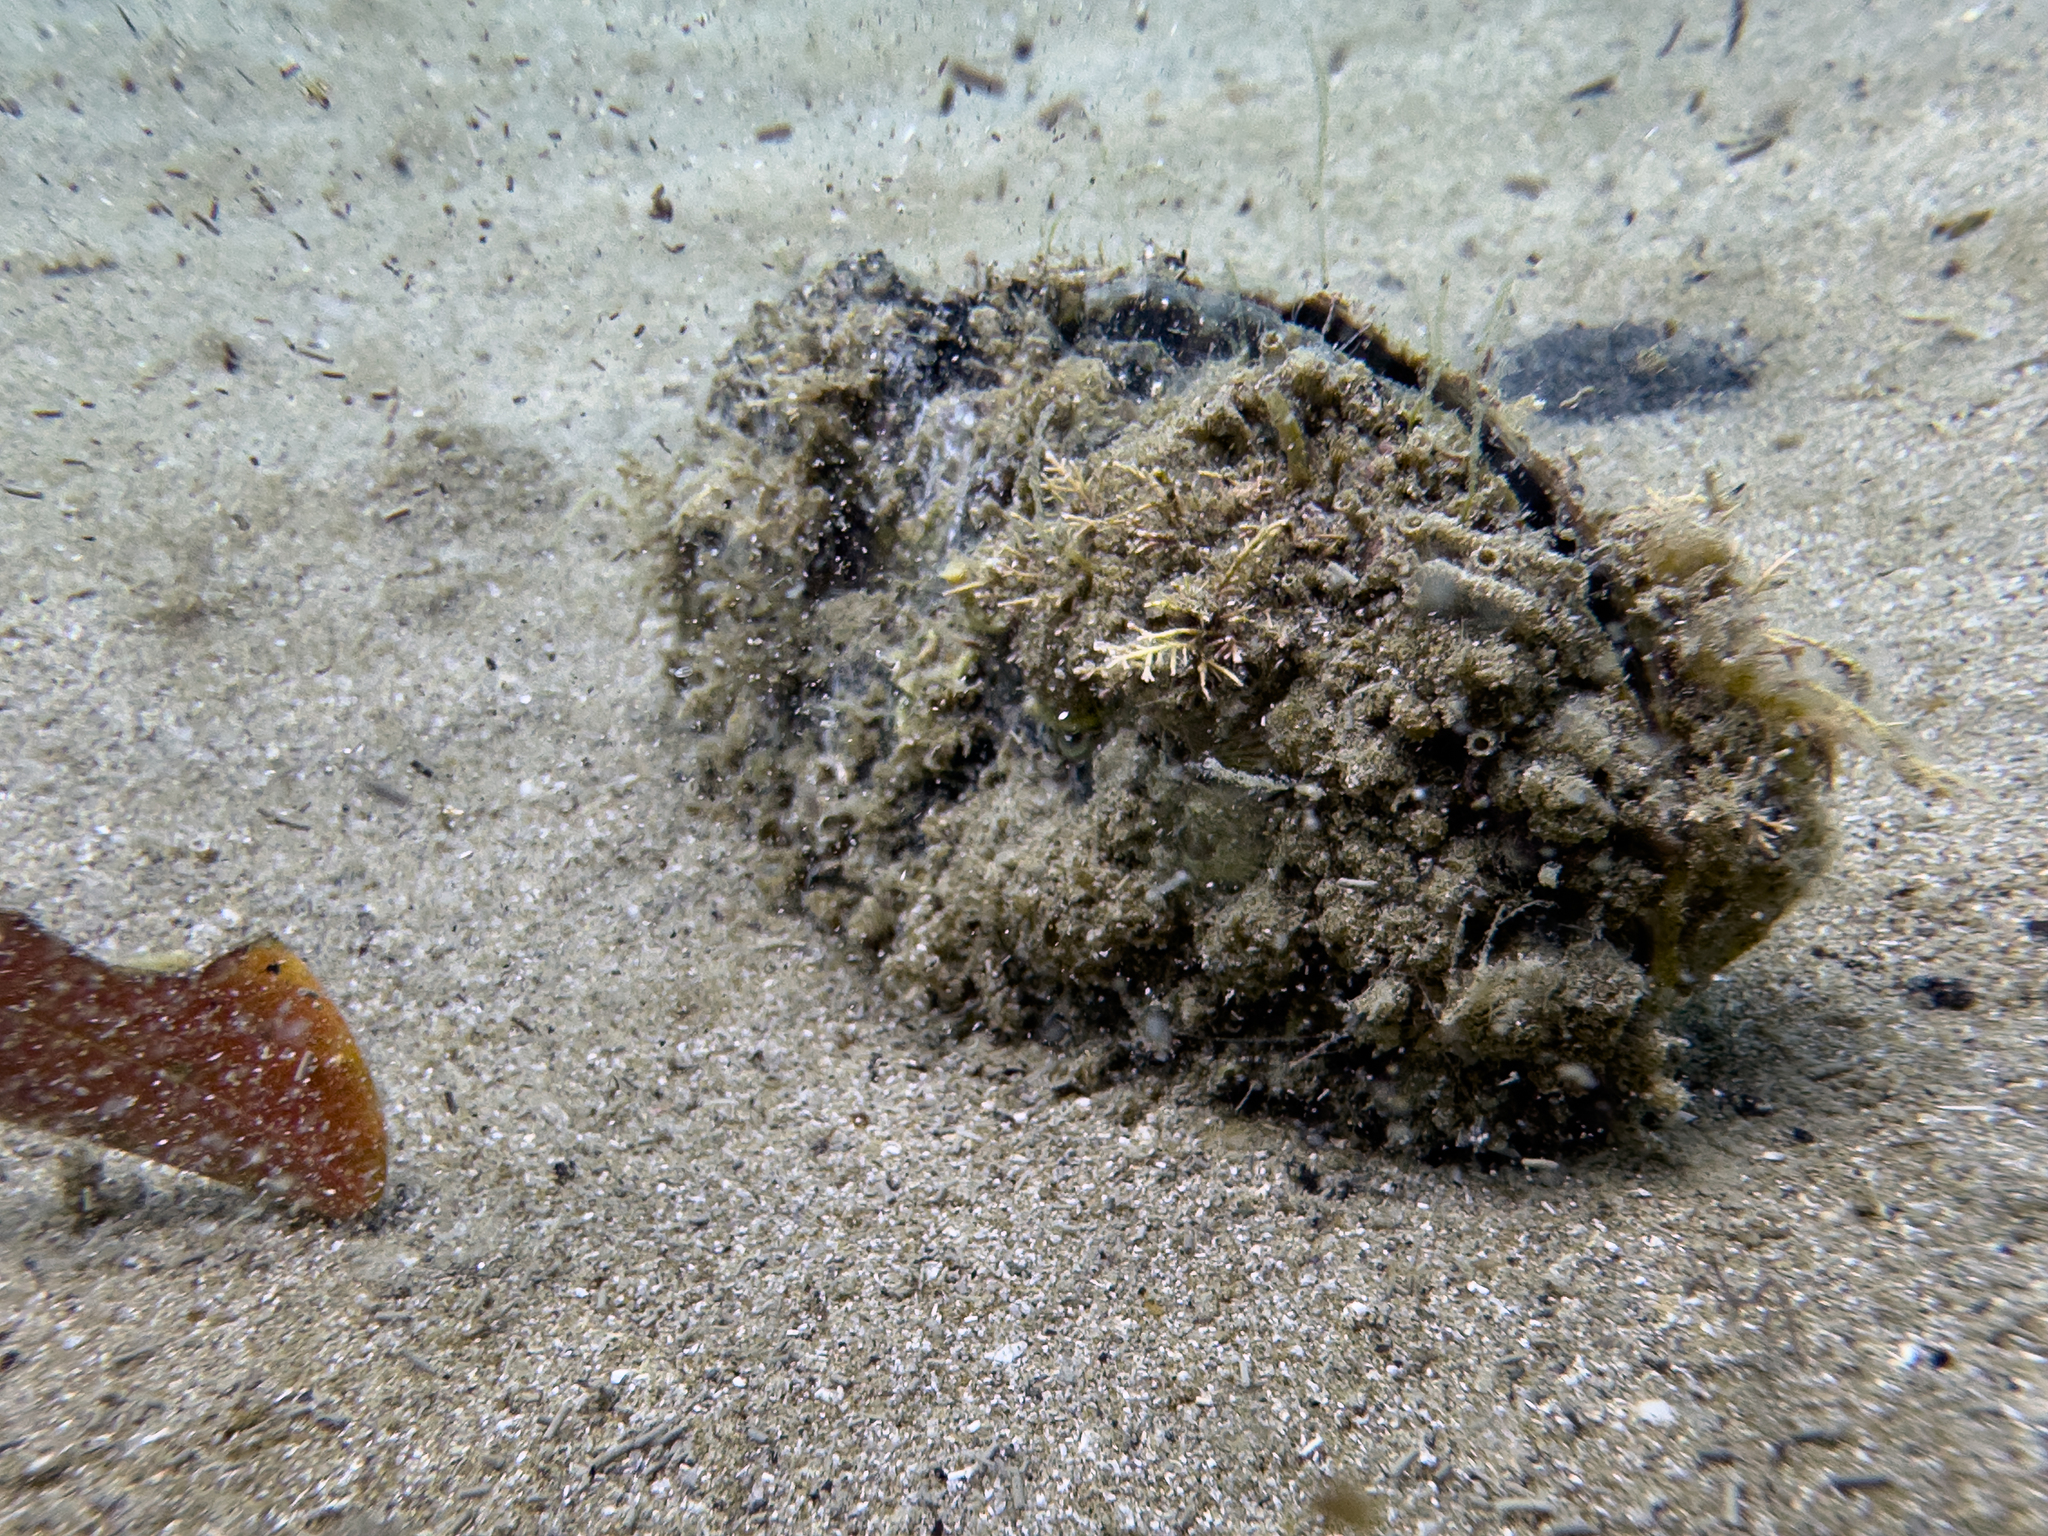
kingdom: Animalia
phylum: Mollusca
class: Bivalvia
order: Ostreida
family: Pinnidae
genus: Atrina
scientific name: Atrina zelandica
